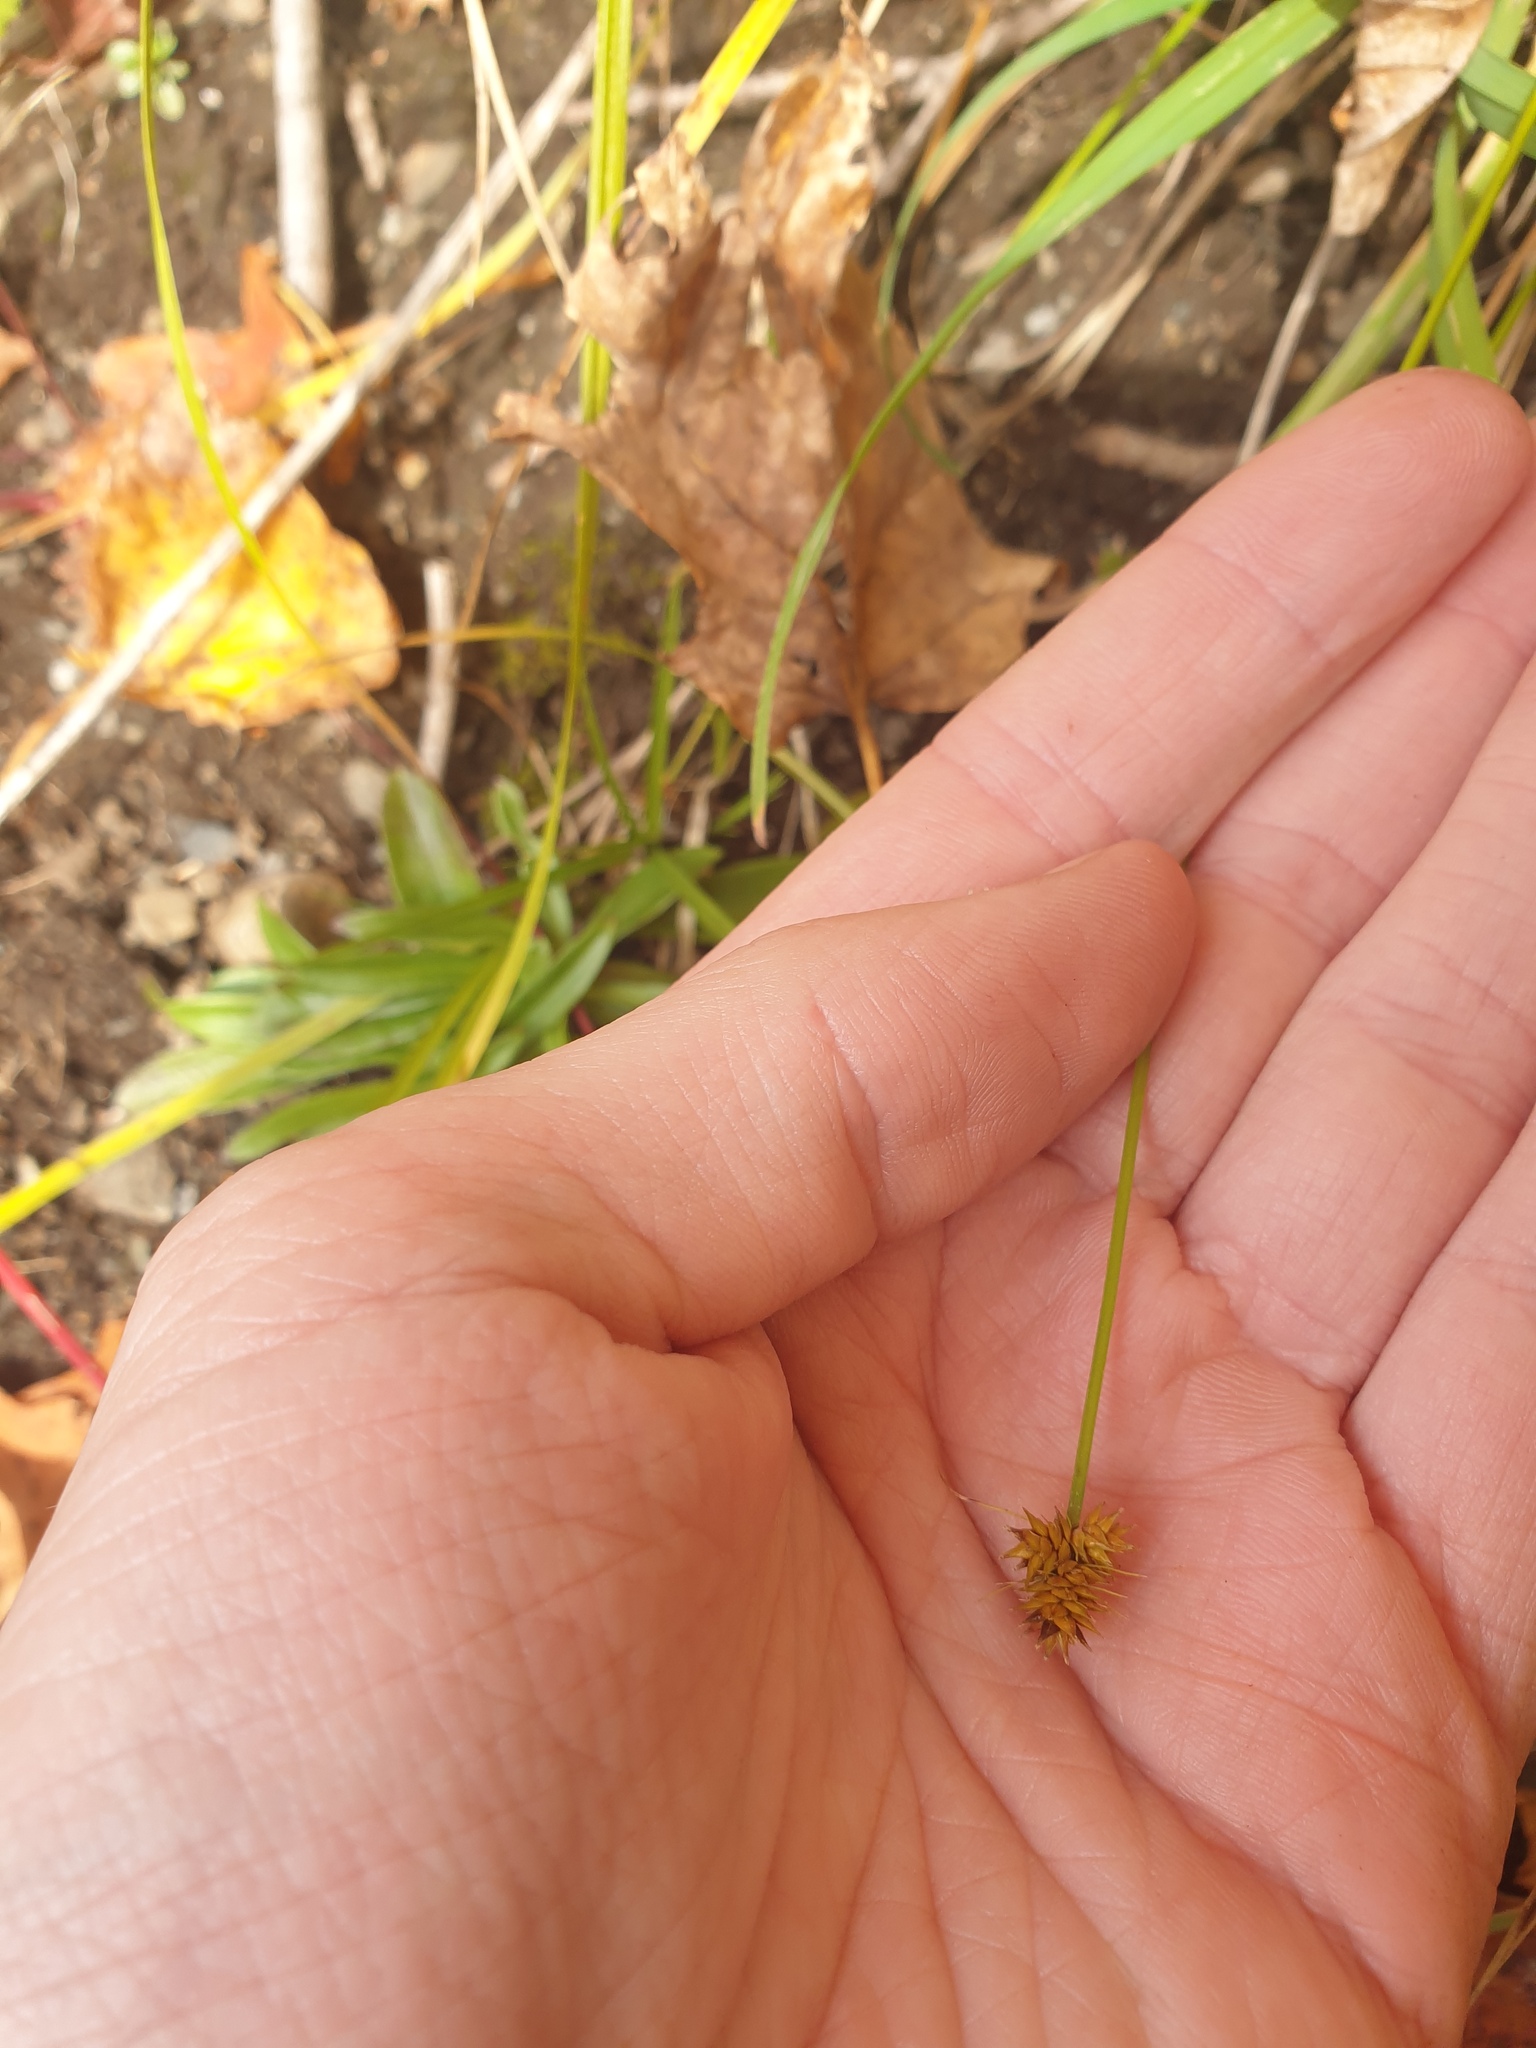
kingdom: Plantae
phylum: Tracheophyta
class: Liliopsida
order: Poales
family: Cyperaceae
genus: Carex
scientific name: Carex cephalophora
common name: Oval-headed sedge
